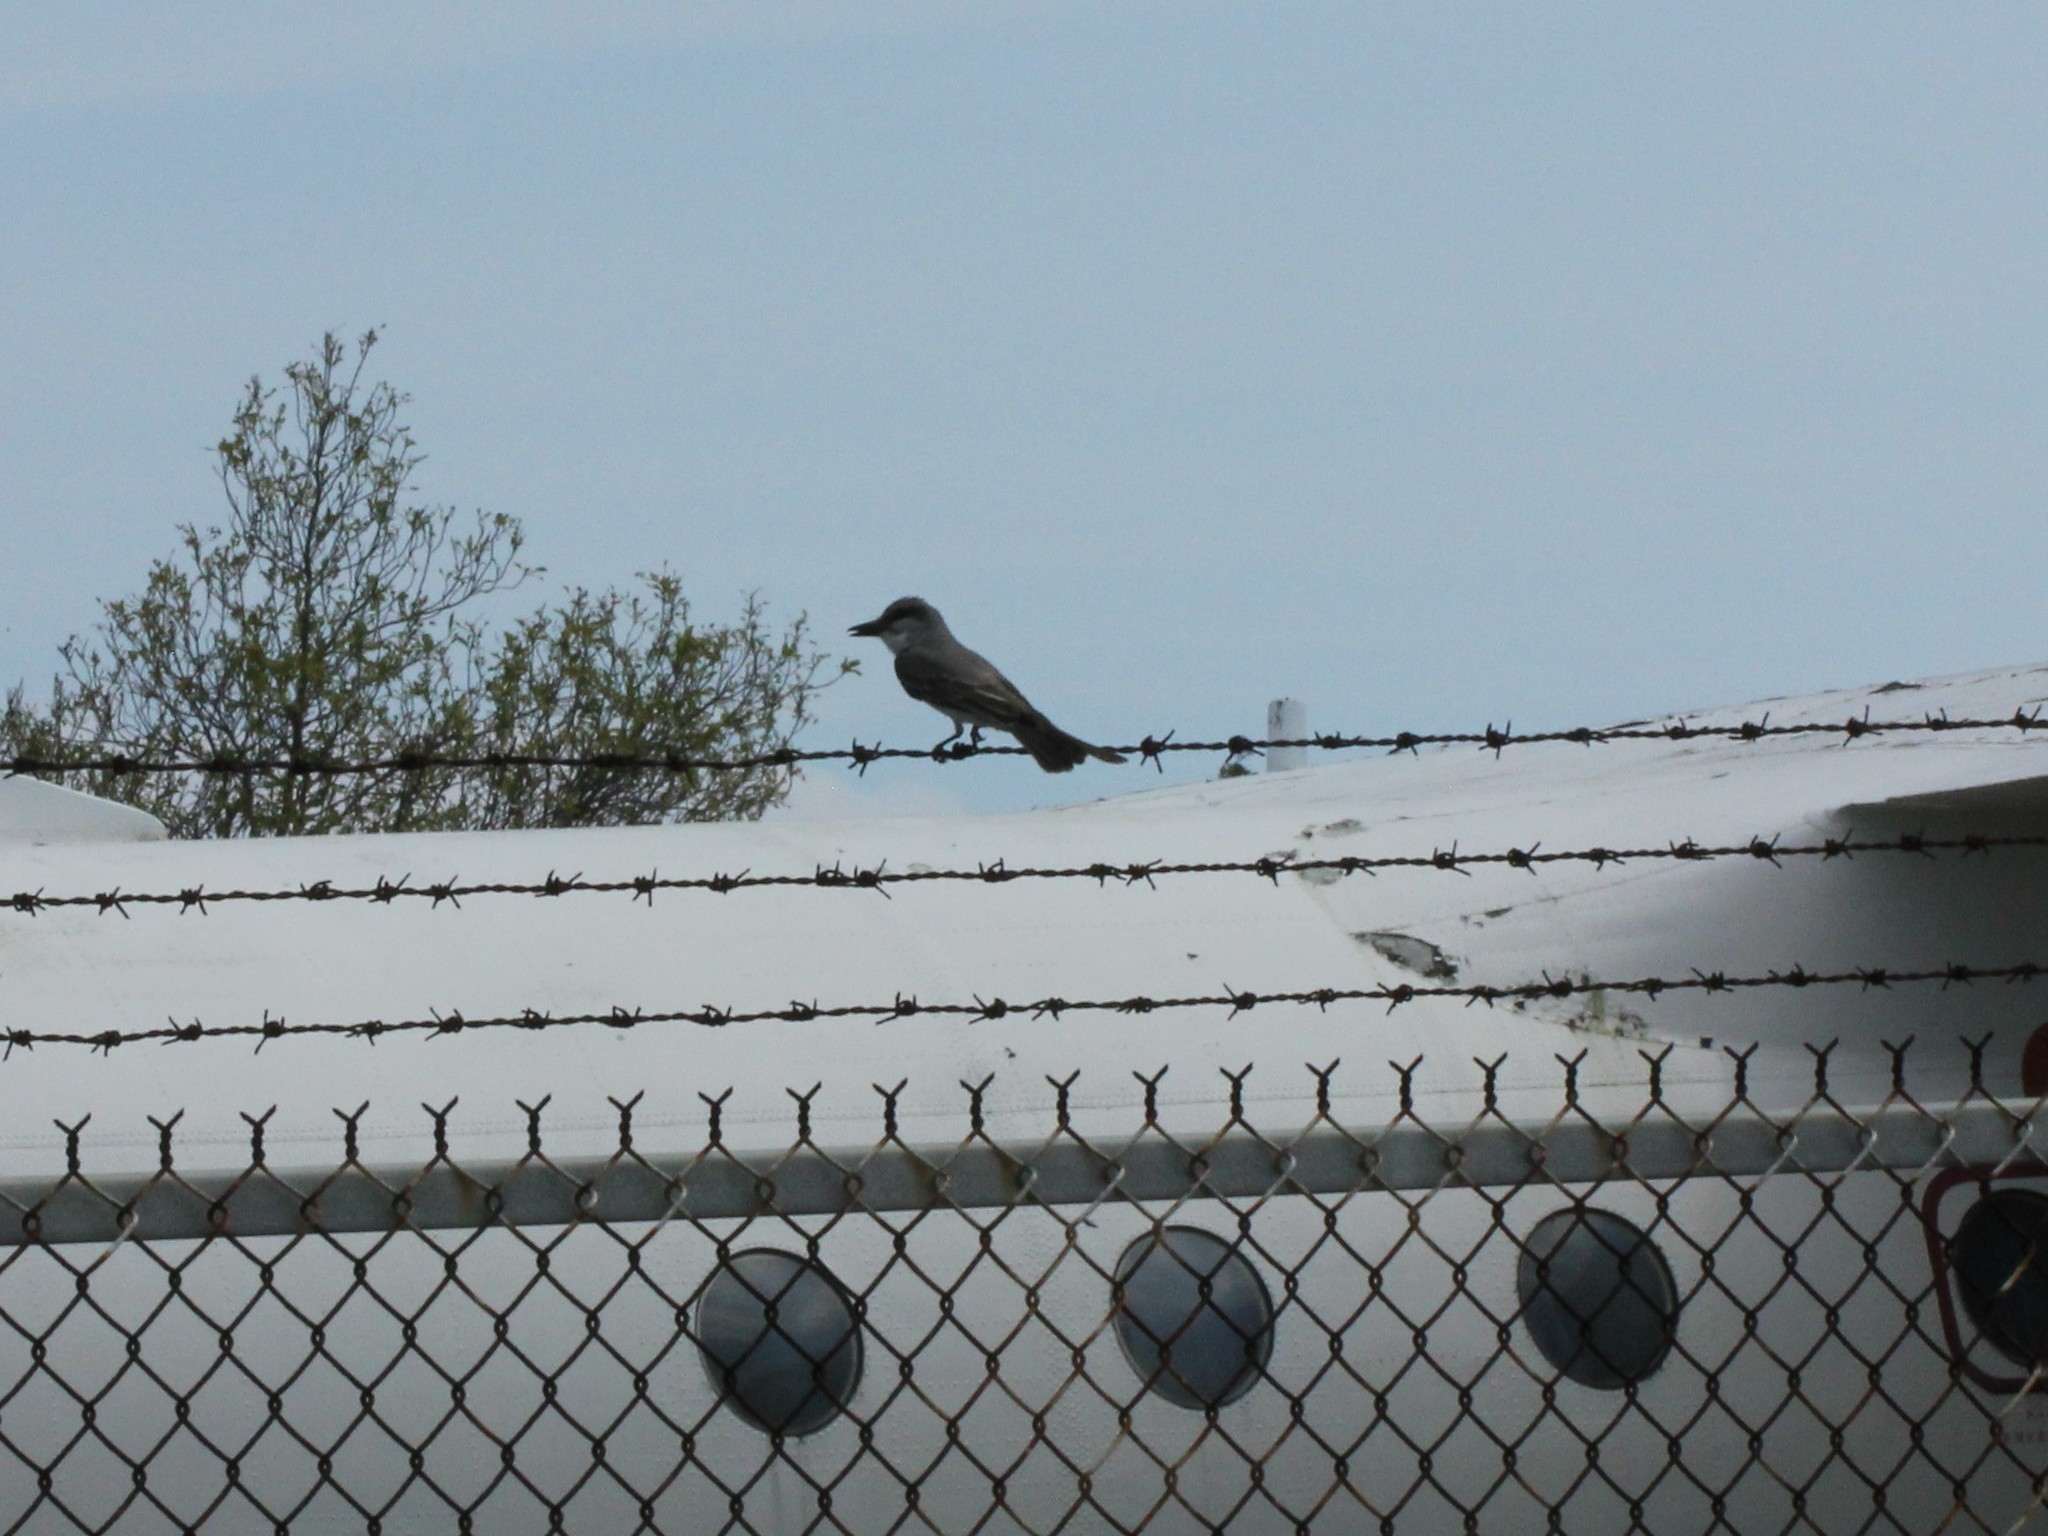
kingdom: Animalia
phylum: Chordata
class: Aves
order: Passeriformes
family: Tyrannidae
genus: Tyrannus
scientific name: Tyrannus dominicensis
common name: Gray kingbird
